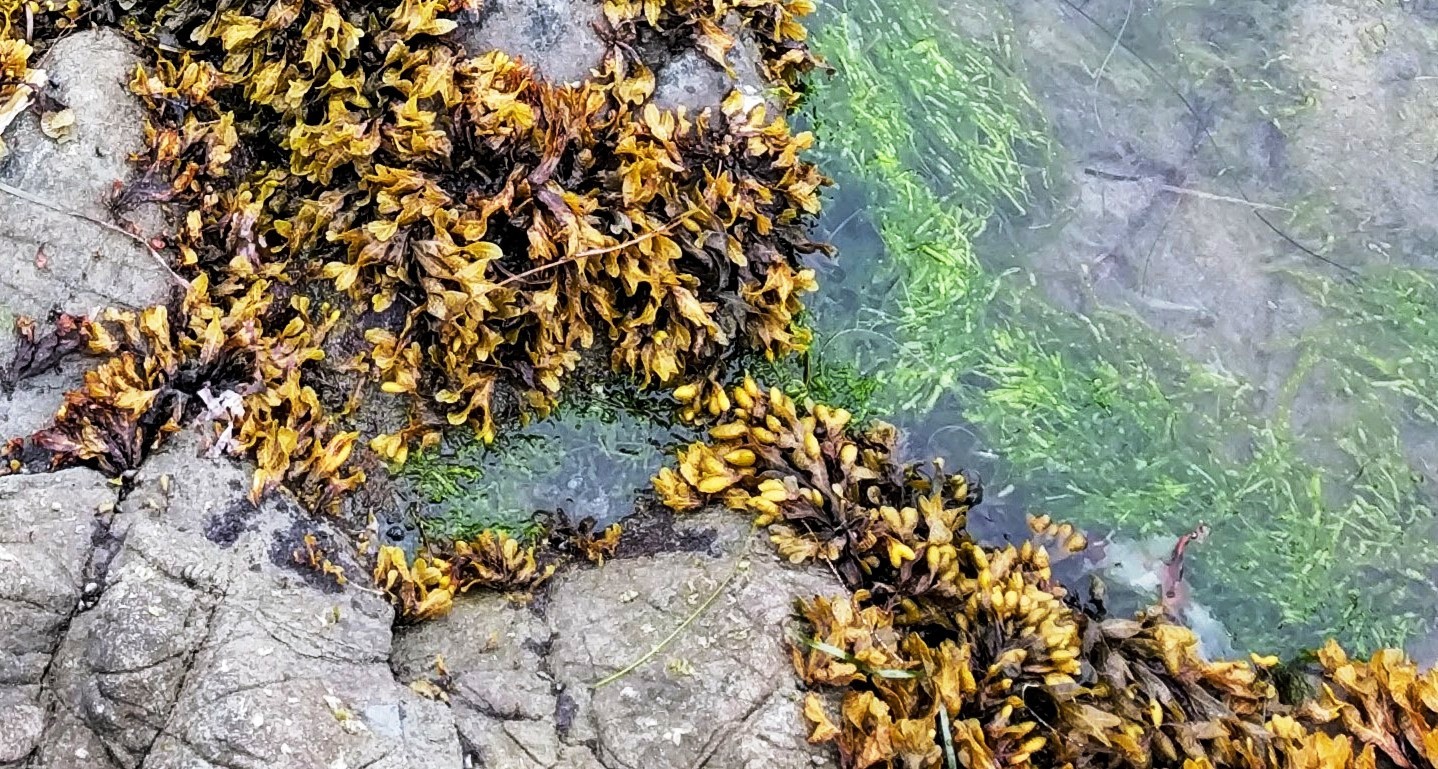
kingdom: Plantae
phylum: Chlorophyta
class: Ulvophyceae
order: Ulvales
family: Ulvaceae
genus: Ulva
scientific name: Ulva intestinalis
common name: Gut weed
